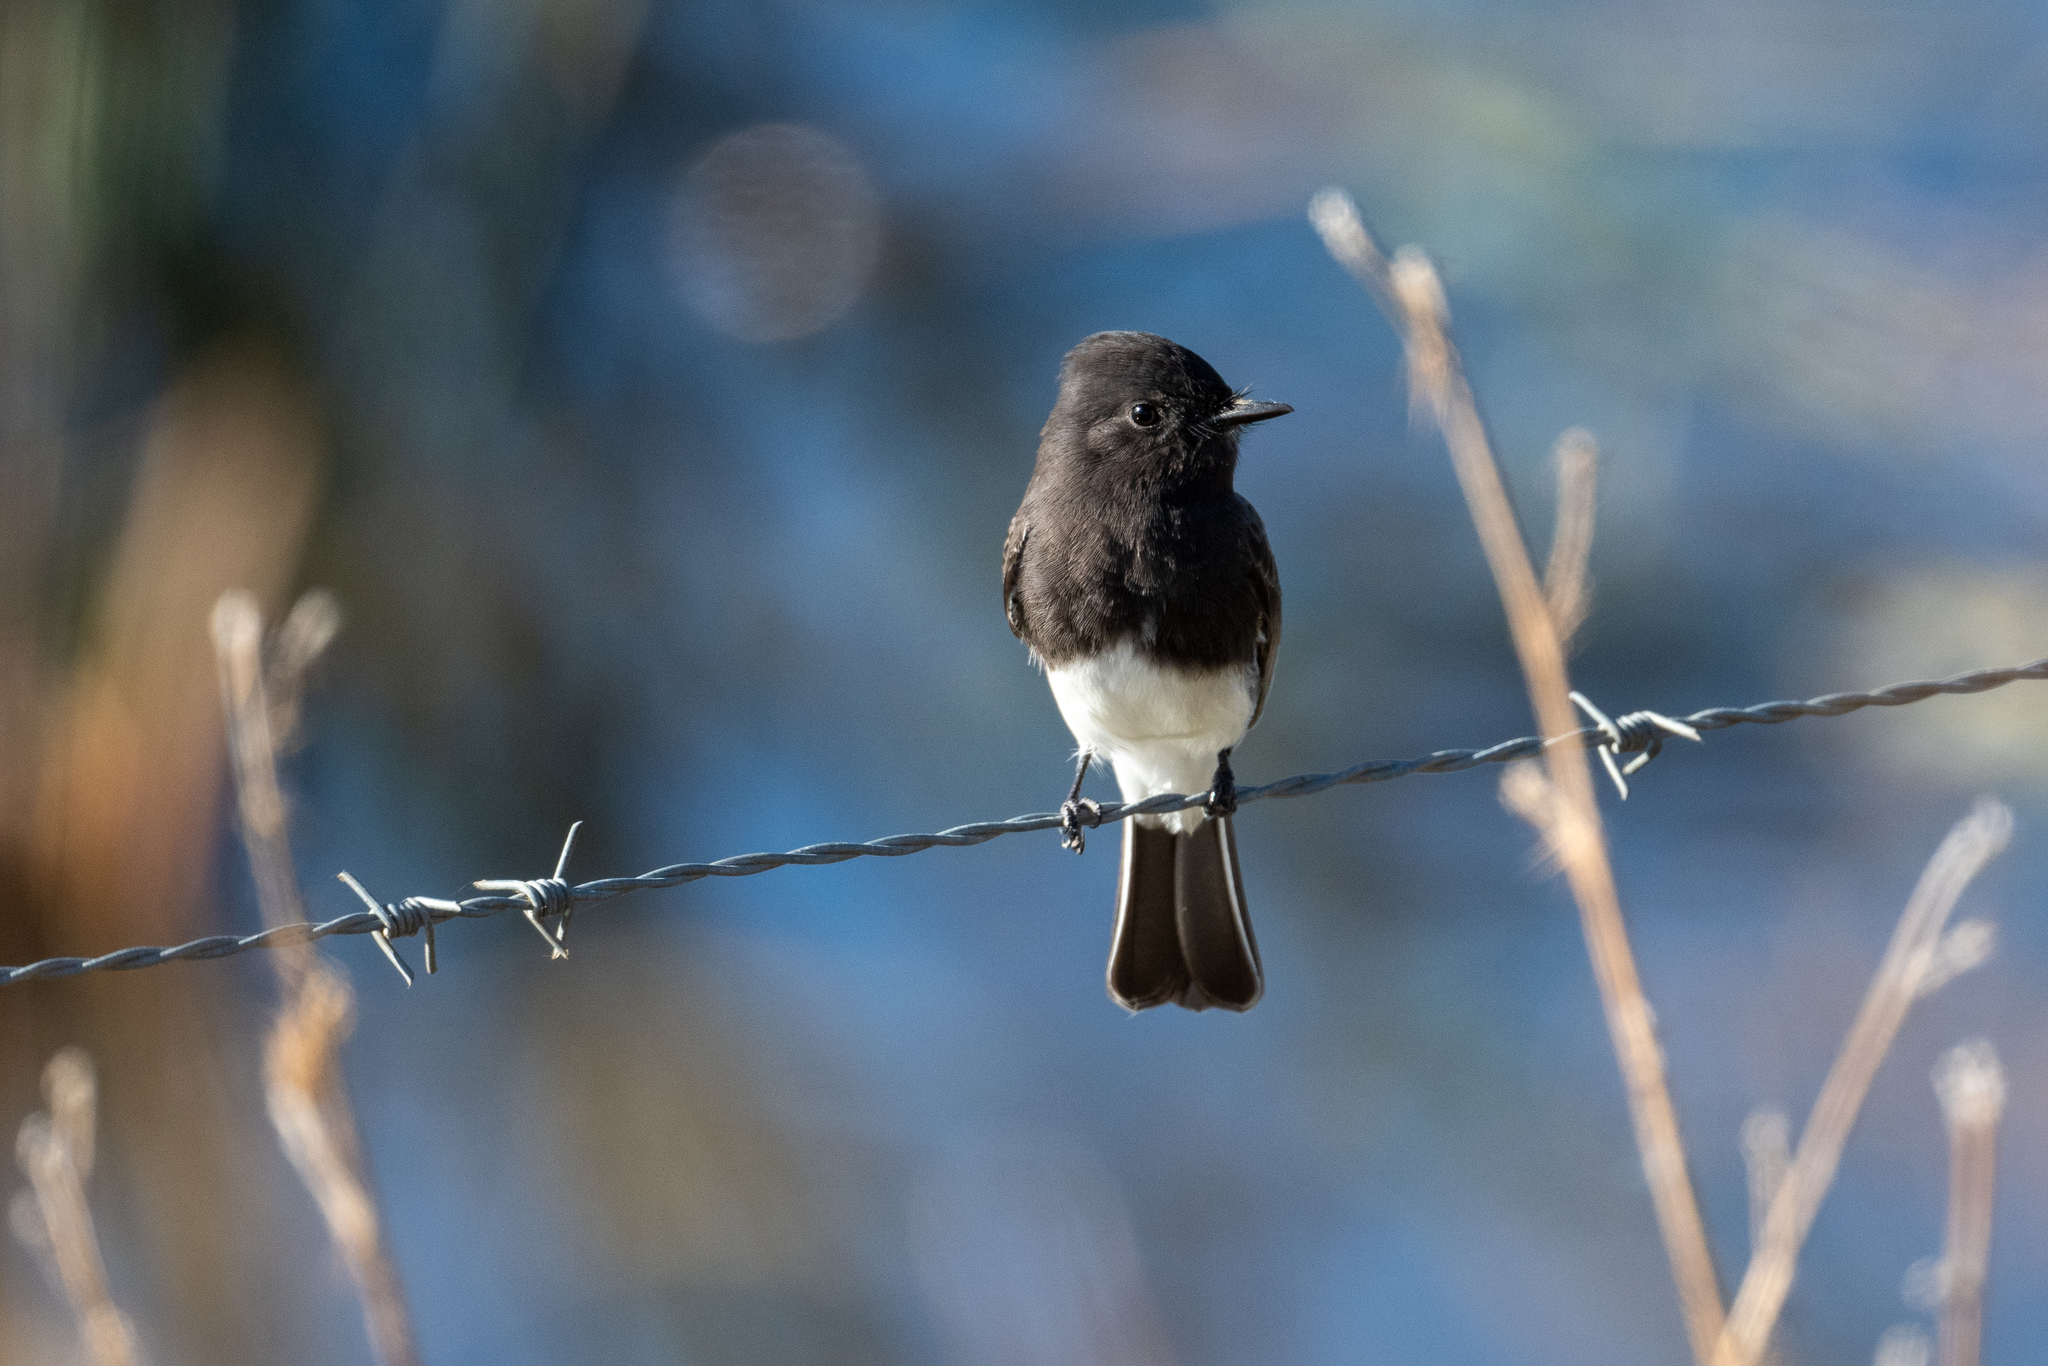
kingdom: Animalia
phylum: Chordata
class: Aves
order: Passeriformes
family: Tyrannidae
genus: Sayornis
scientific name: Sayornis nigricans
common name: Black phoebe
